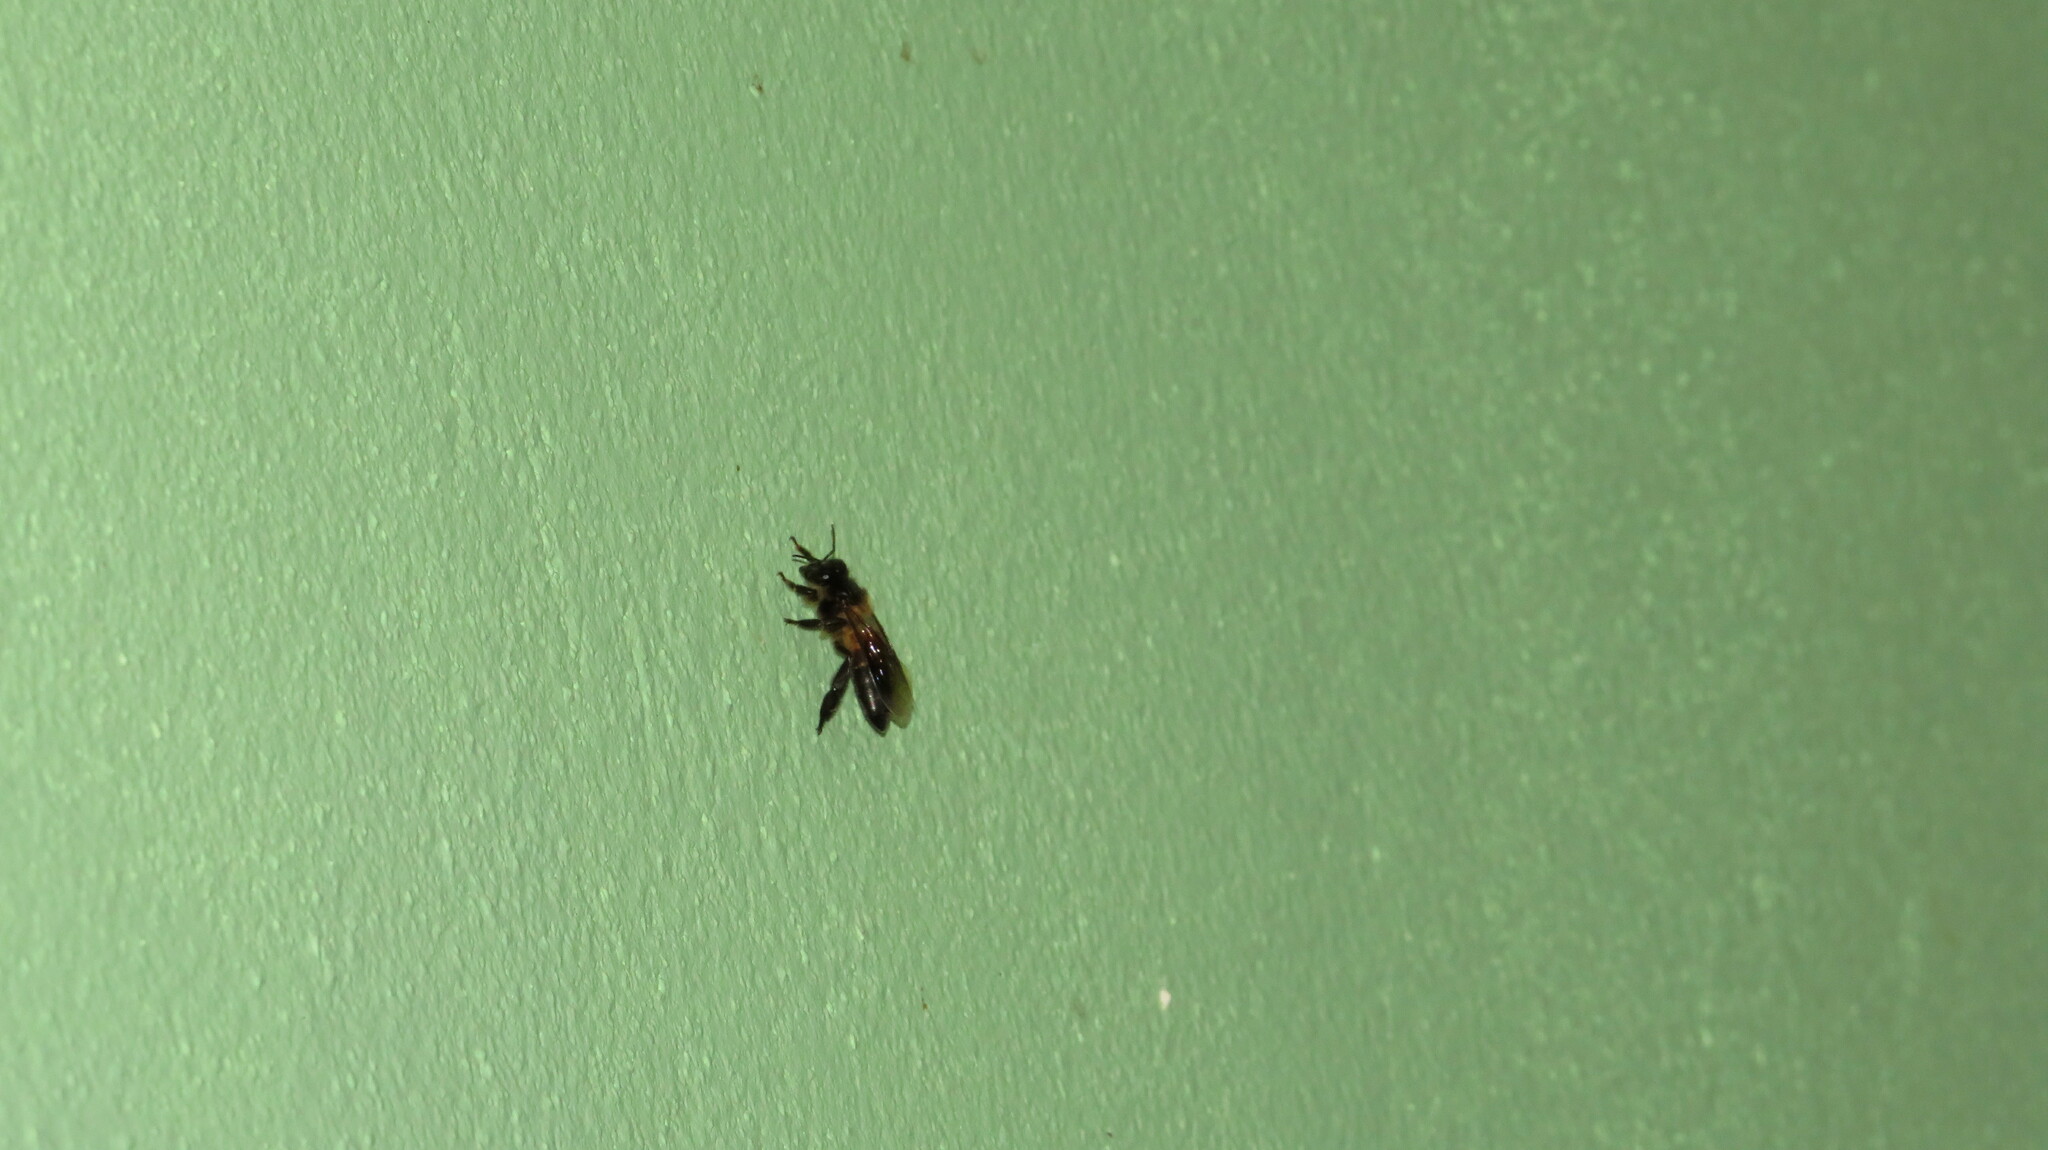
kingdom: Animalia
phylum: Arthropoda
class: Insecta
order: Hymenoptera
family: Apidae
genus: Apis
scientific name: Apis dorsata
